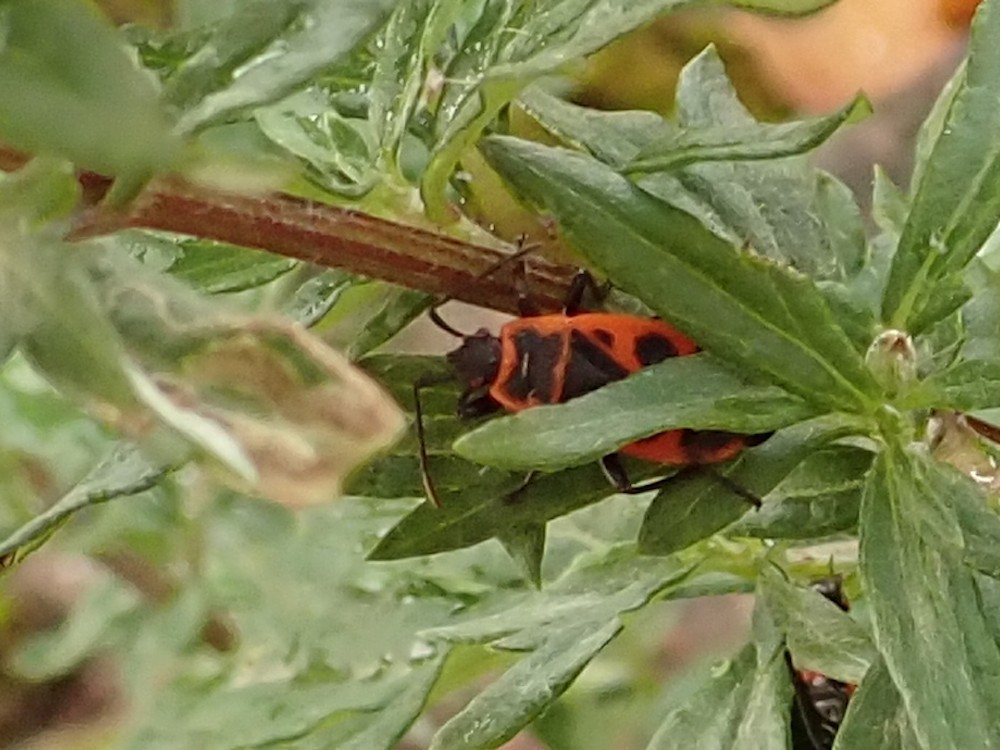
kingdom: Animalia
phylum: Arthropoda
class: Insecta
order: Hemiptera
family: Pyrrhocoridae
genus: Pyrrhocoris
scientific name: Pyrrhocoris apterus
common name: Firebug
